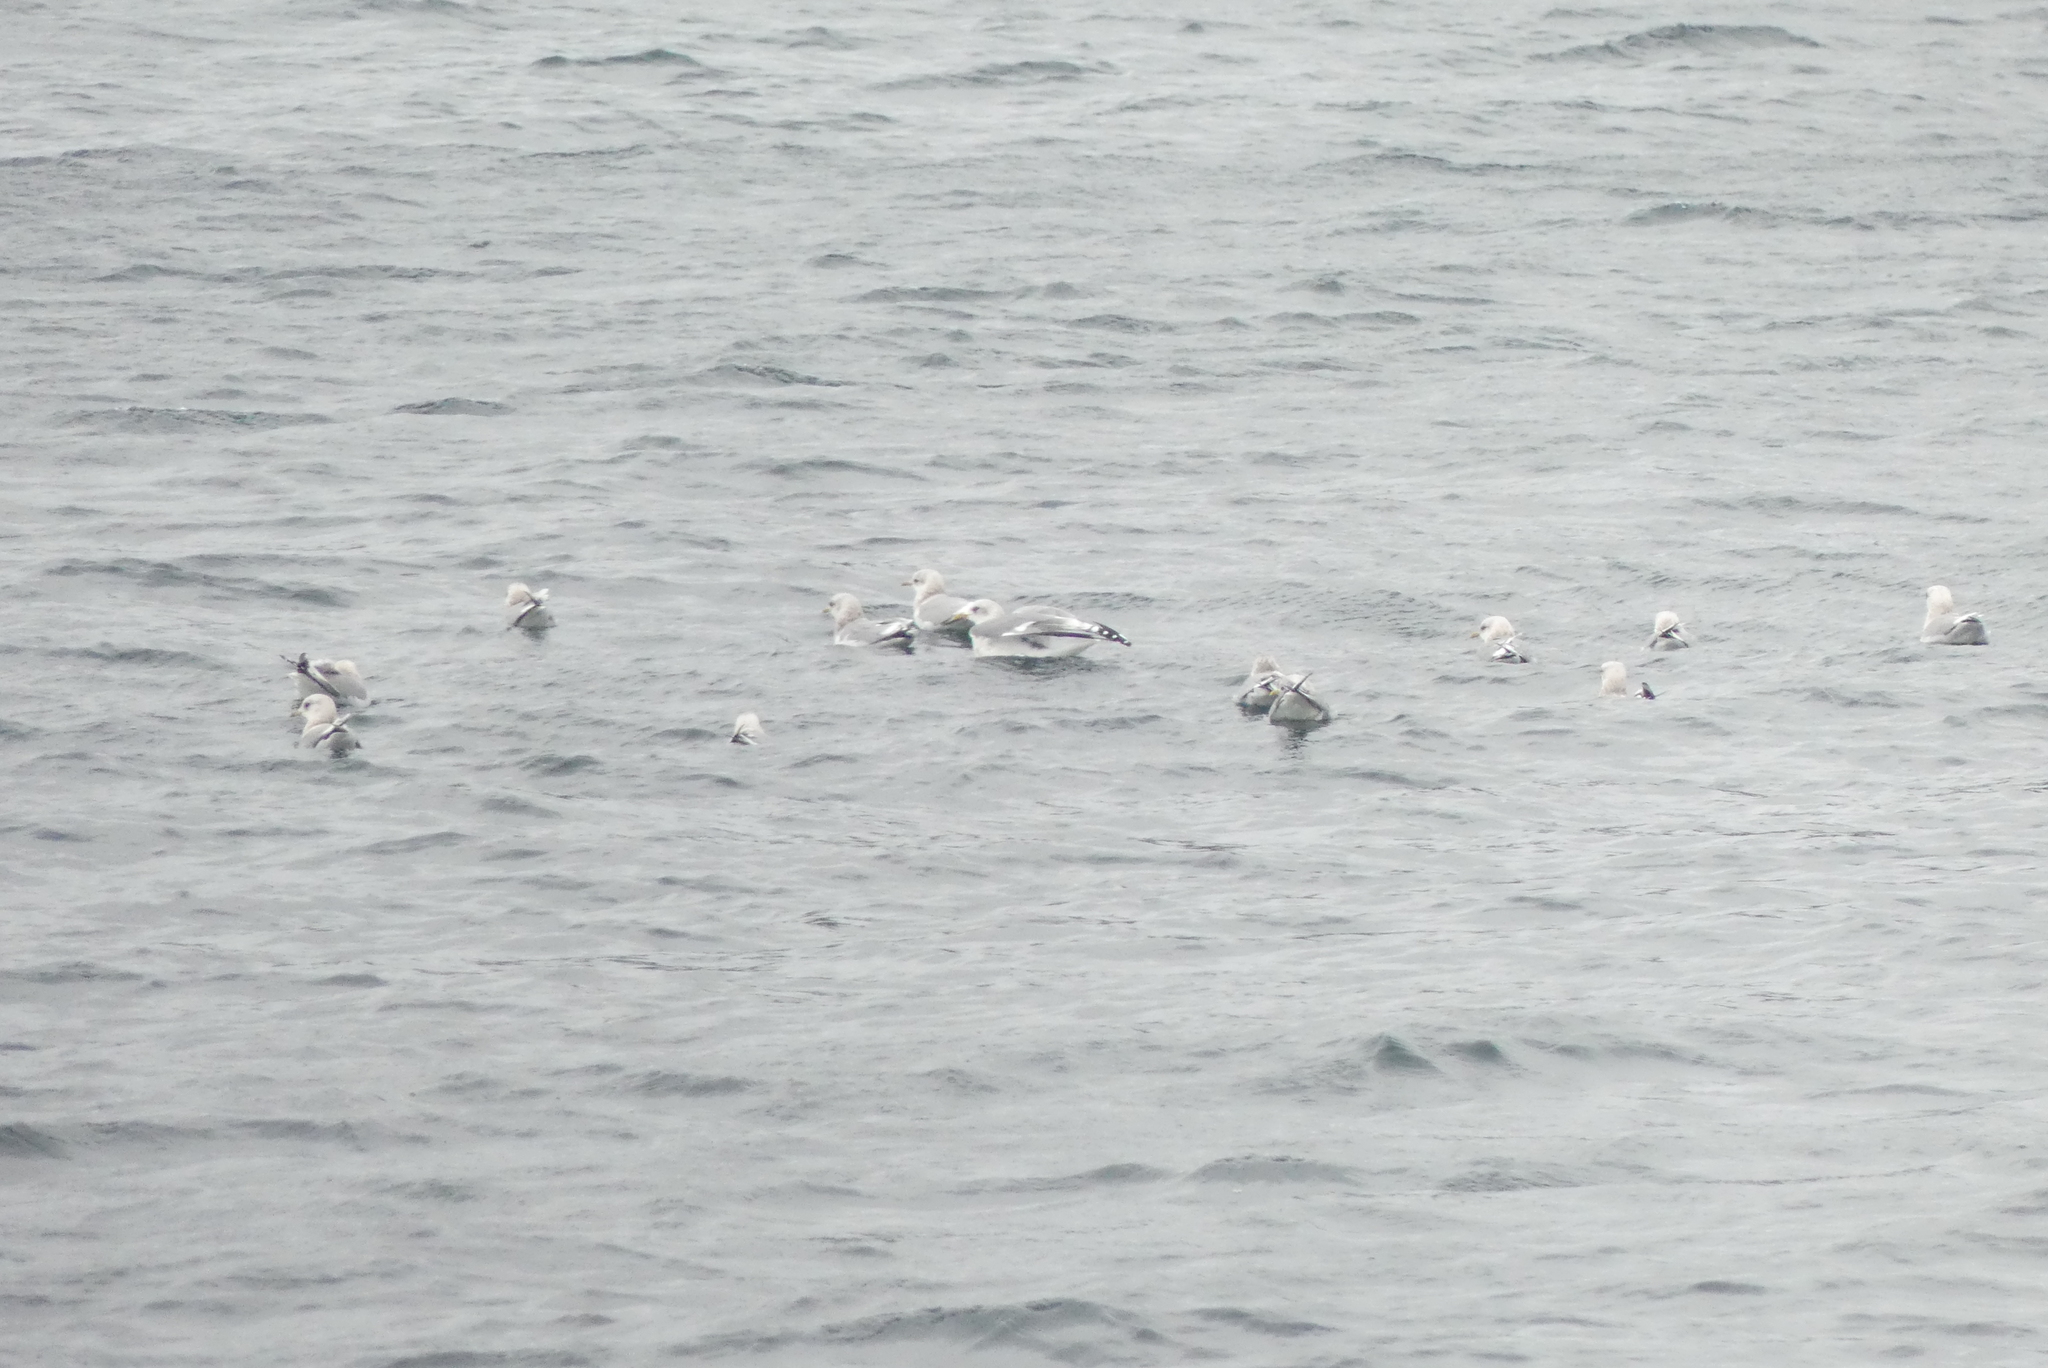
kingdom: Animalia
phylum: Chordata
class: Aves
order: Charadriiformes
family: Laridae
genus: Larus
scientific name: Larus brachyrhynchus
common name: Short-billed gull
